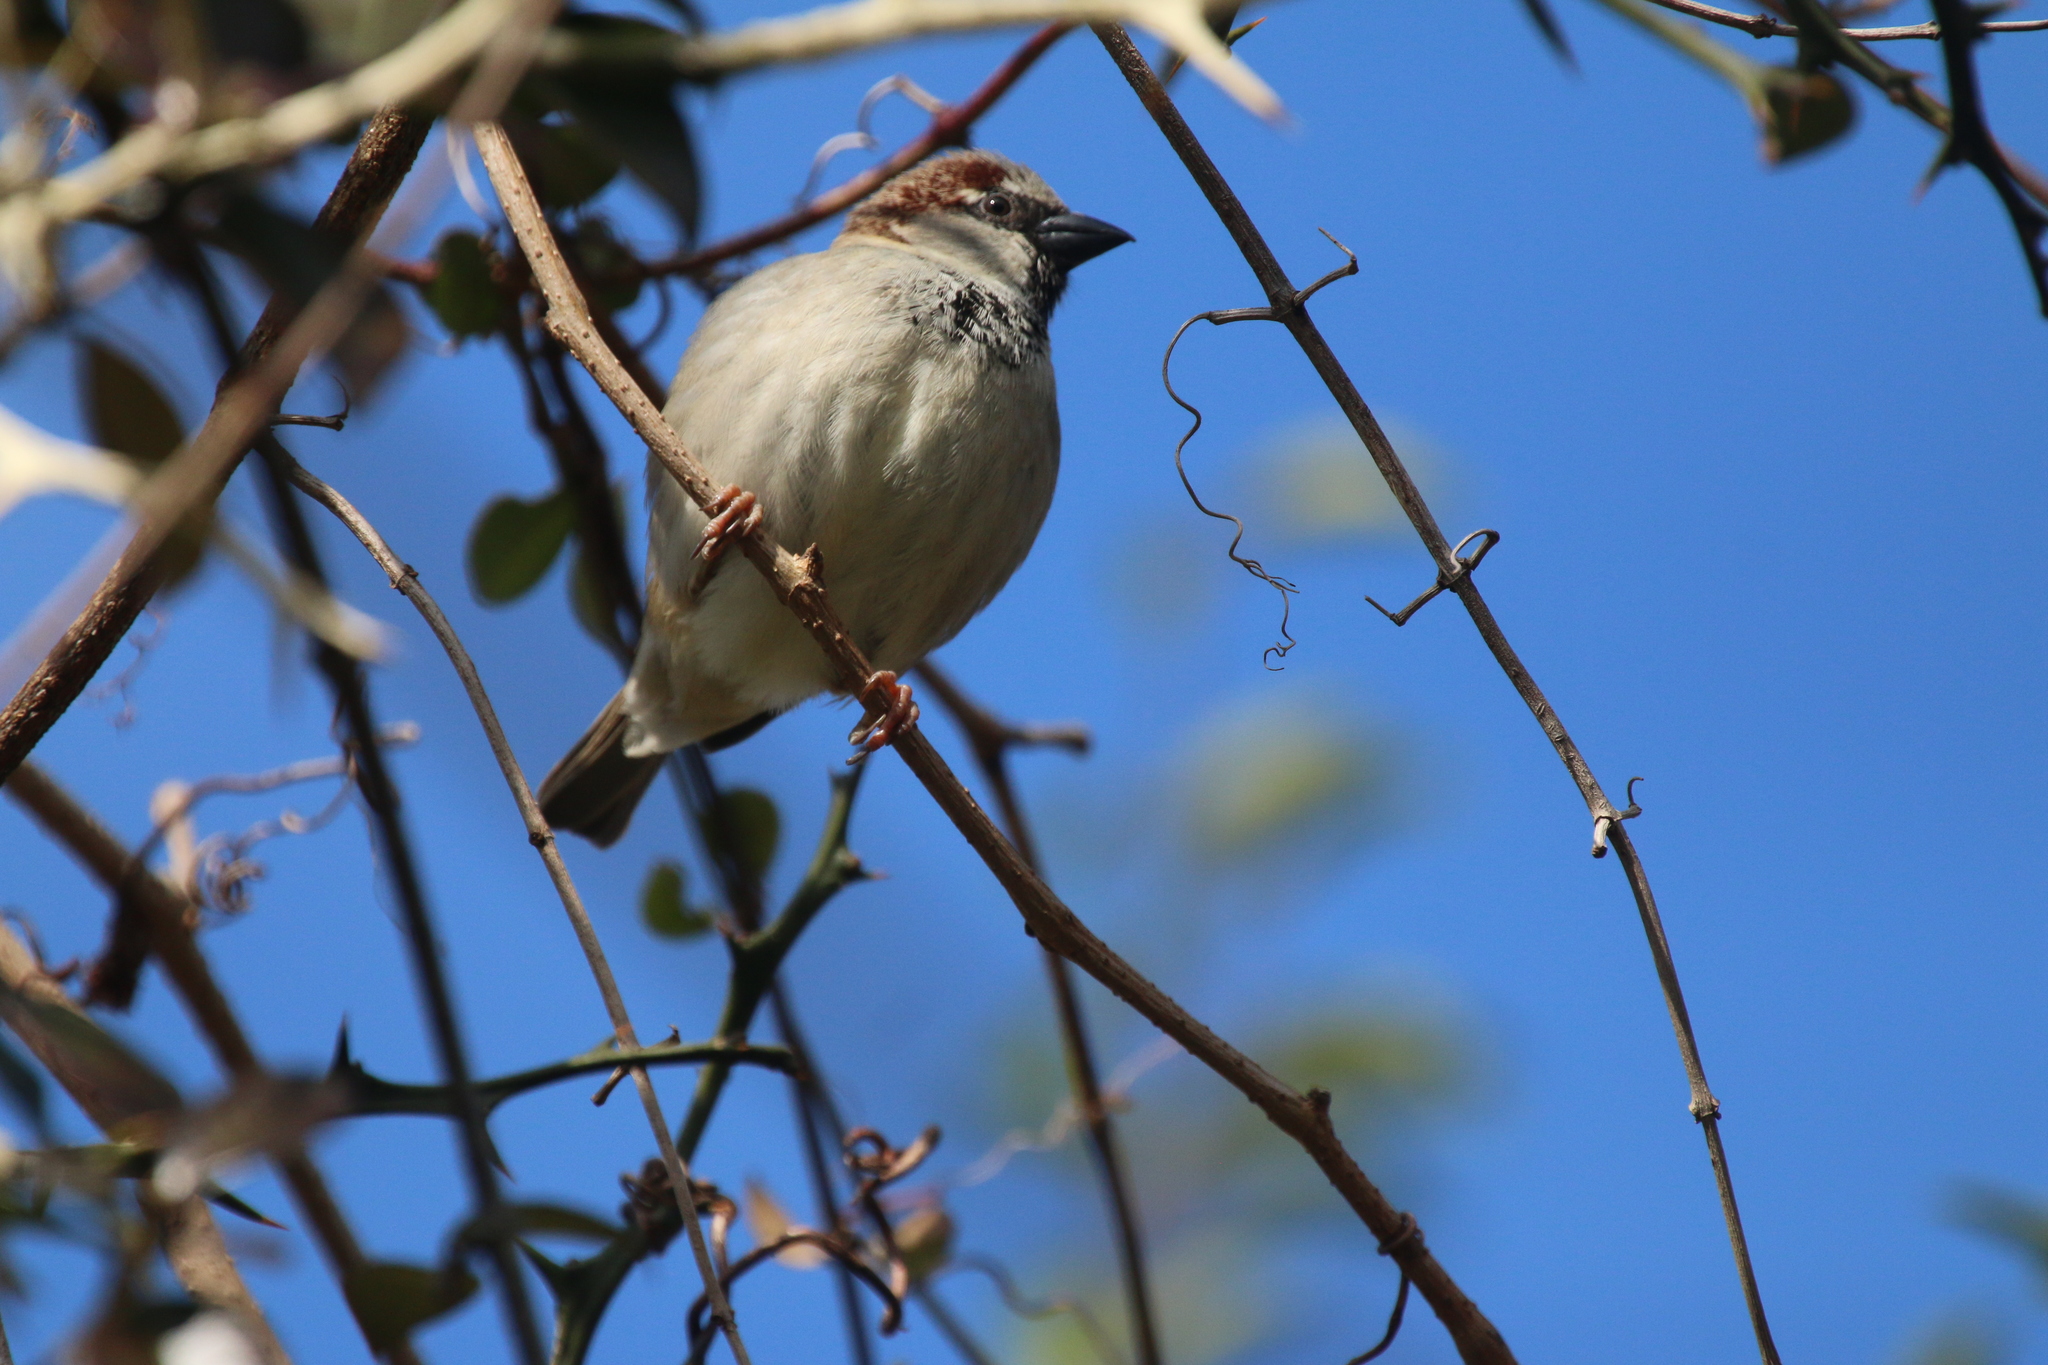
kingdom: Animalia
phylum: Chordata
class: Aves
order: Passeriformes
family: Passeridae
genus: Passer
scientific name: Passer domesticus
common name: House sparrow
